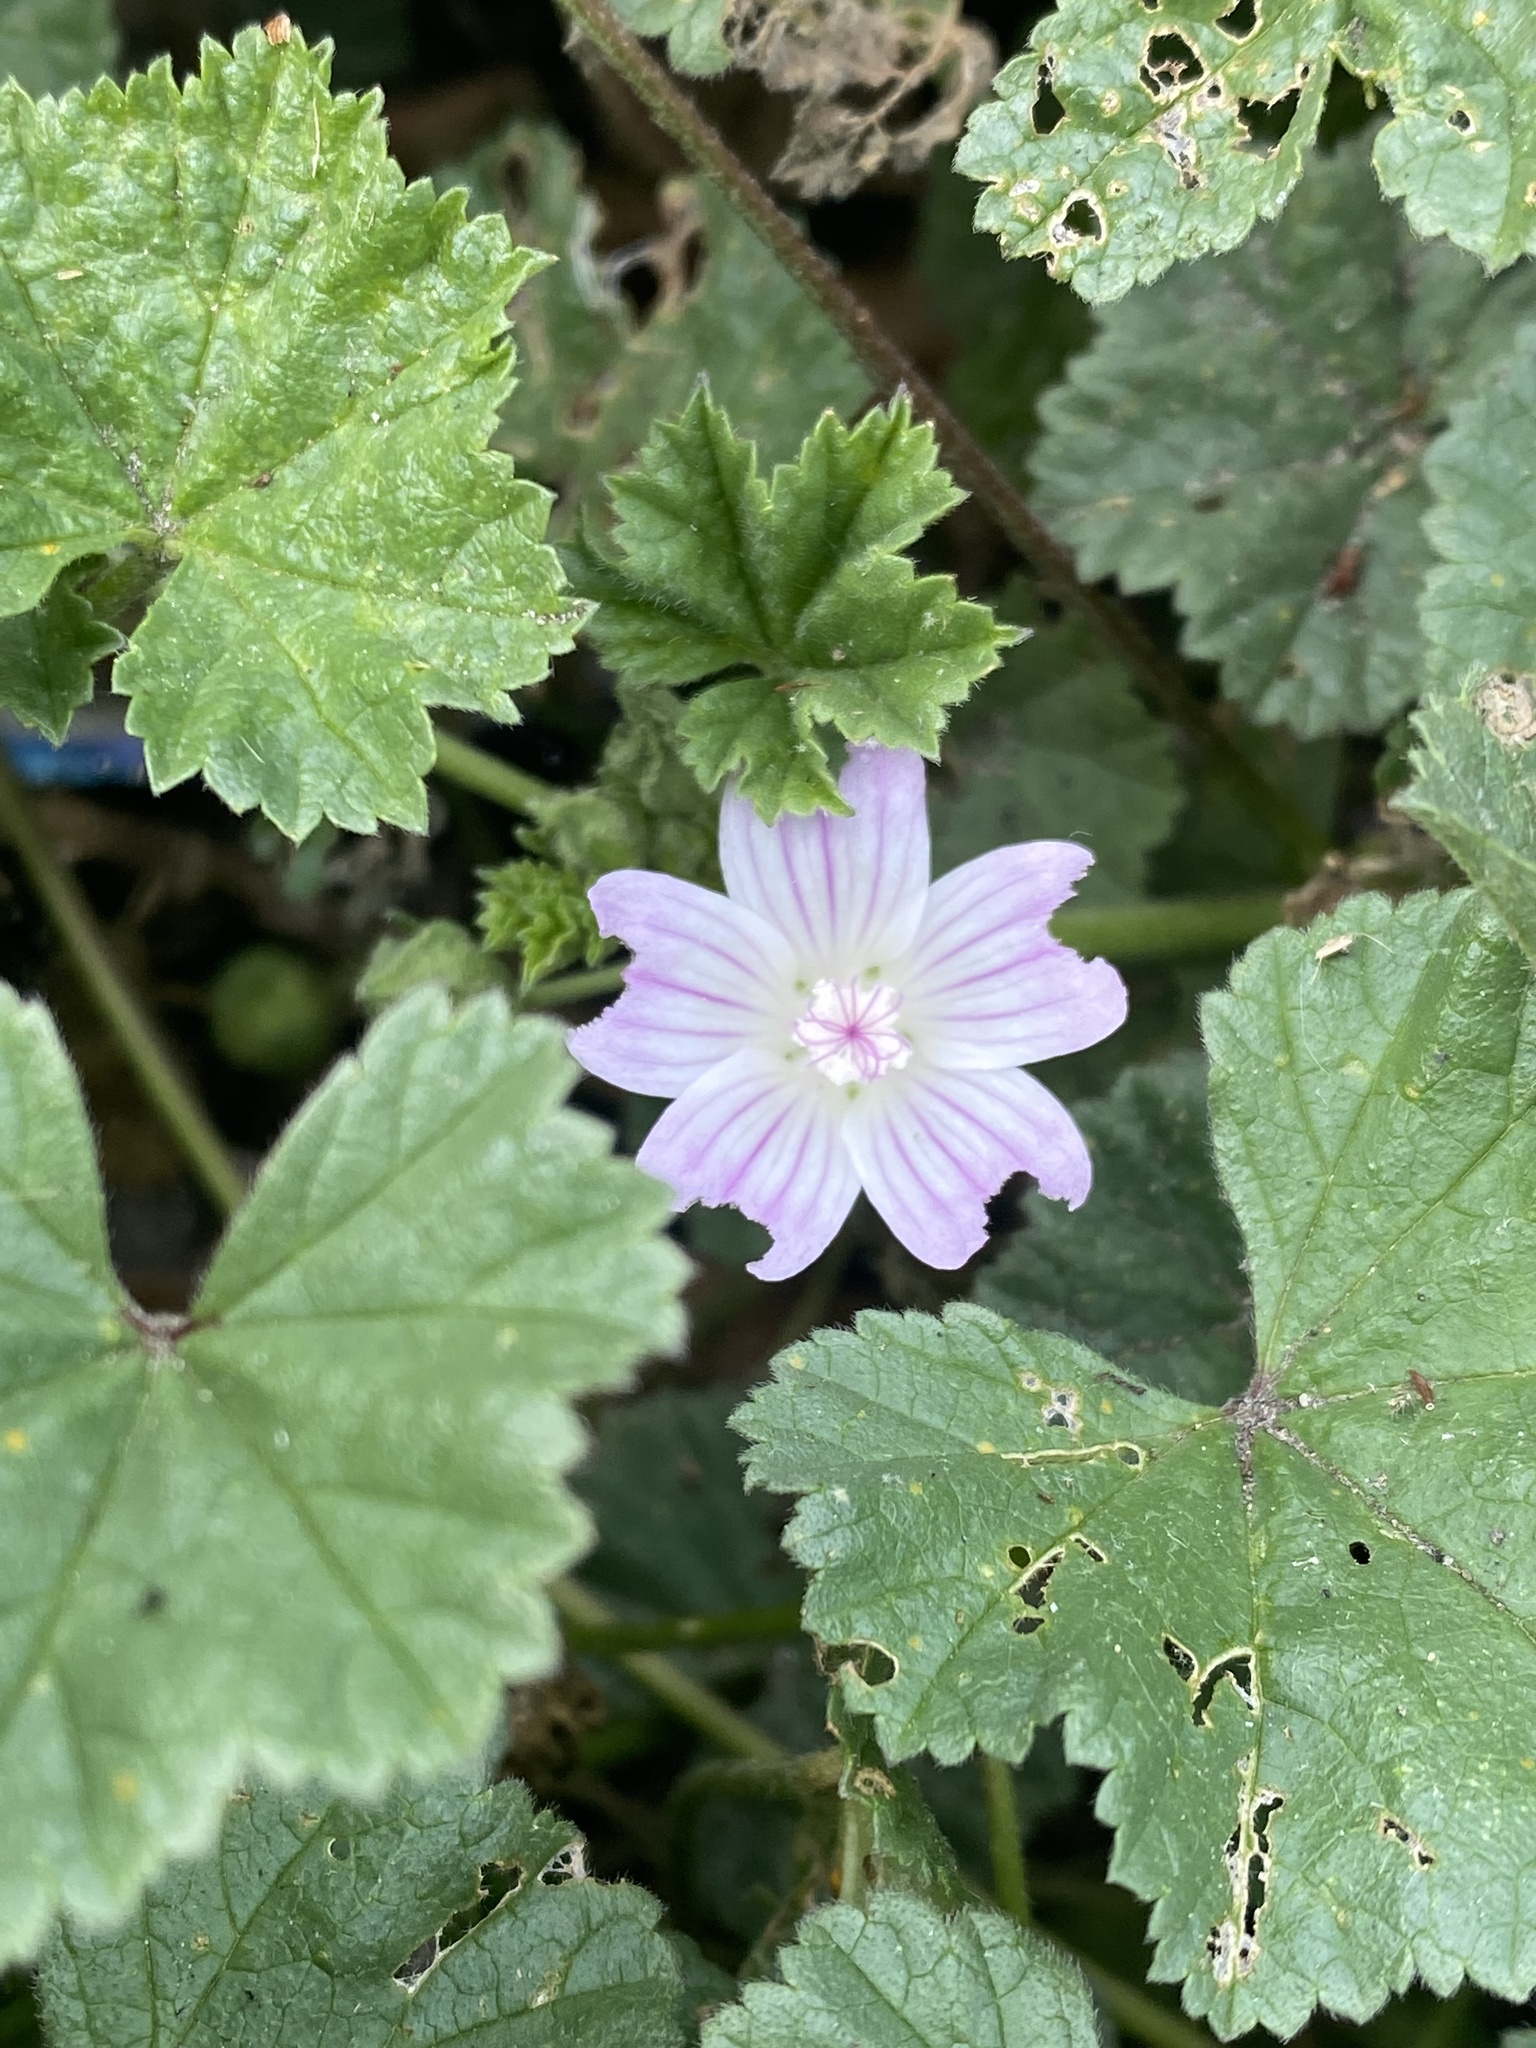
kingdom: Plantae
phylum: Tracheophyta
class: Magnoliopsida
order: Malvales
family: Malvaceae
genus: Malva
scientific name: Malva neglecta
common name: Common mallow
